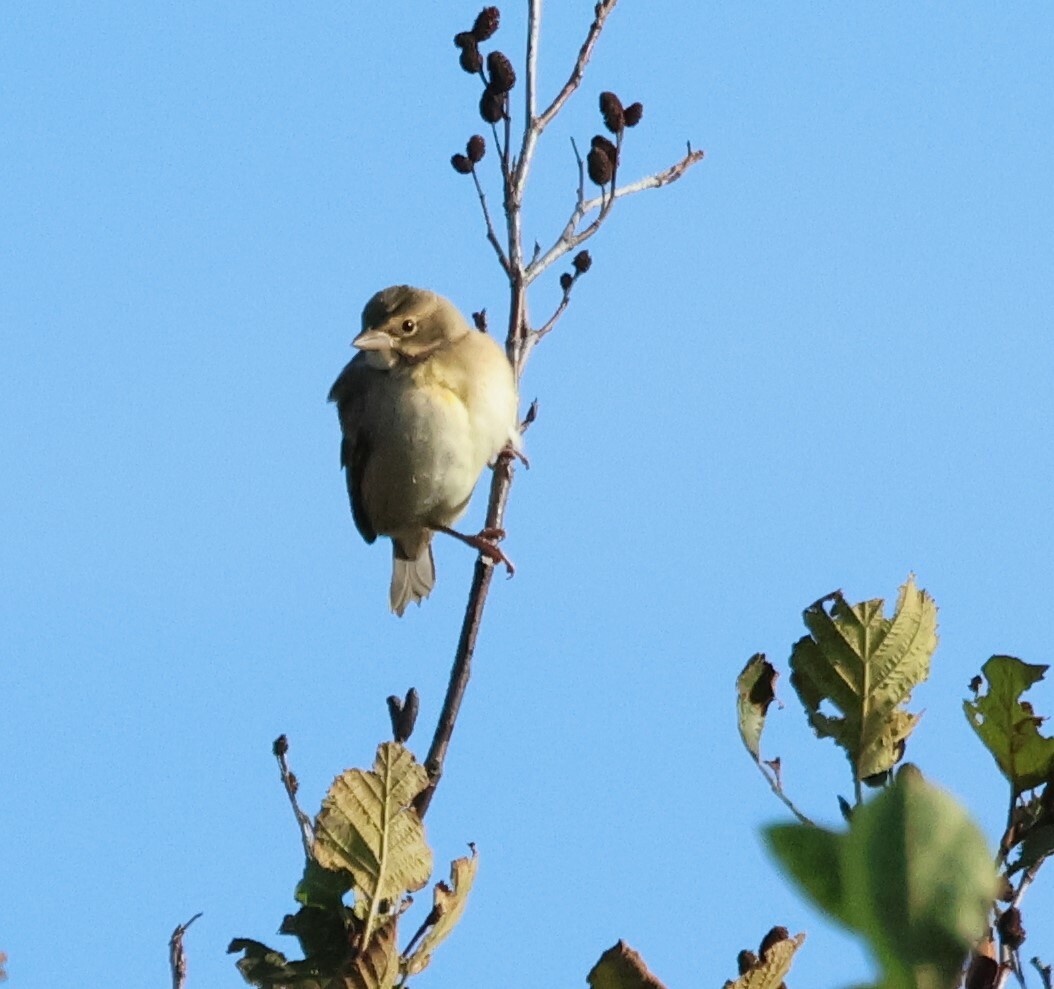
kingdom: Animalia
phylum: Chordata
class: Aves
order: Passeriformes
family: Cardinalidae
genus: Spiza
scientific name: Spiza americana
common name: Dickcissel
